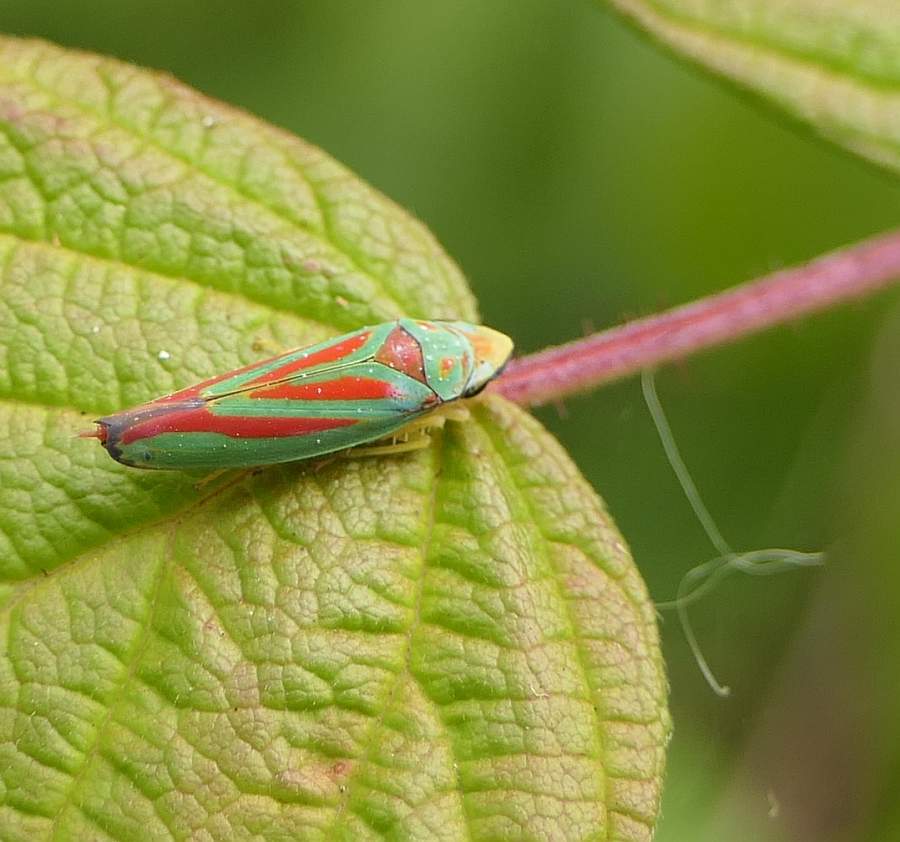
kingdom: Animalia
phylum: Arthropoda
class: Insecta
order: Hemiptera
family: Cicadellidae
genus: Graphocephala
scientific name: Graphocephala coccinea
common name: Candy-striped leafhopper
